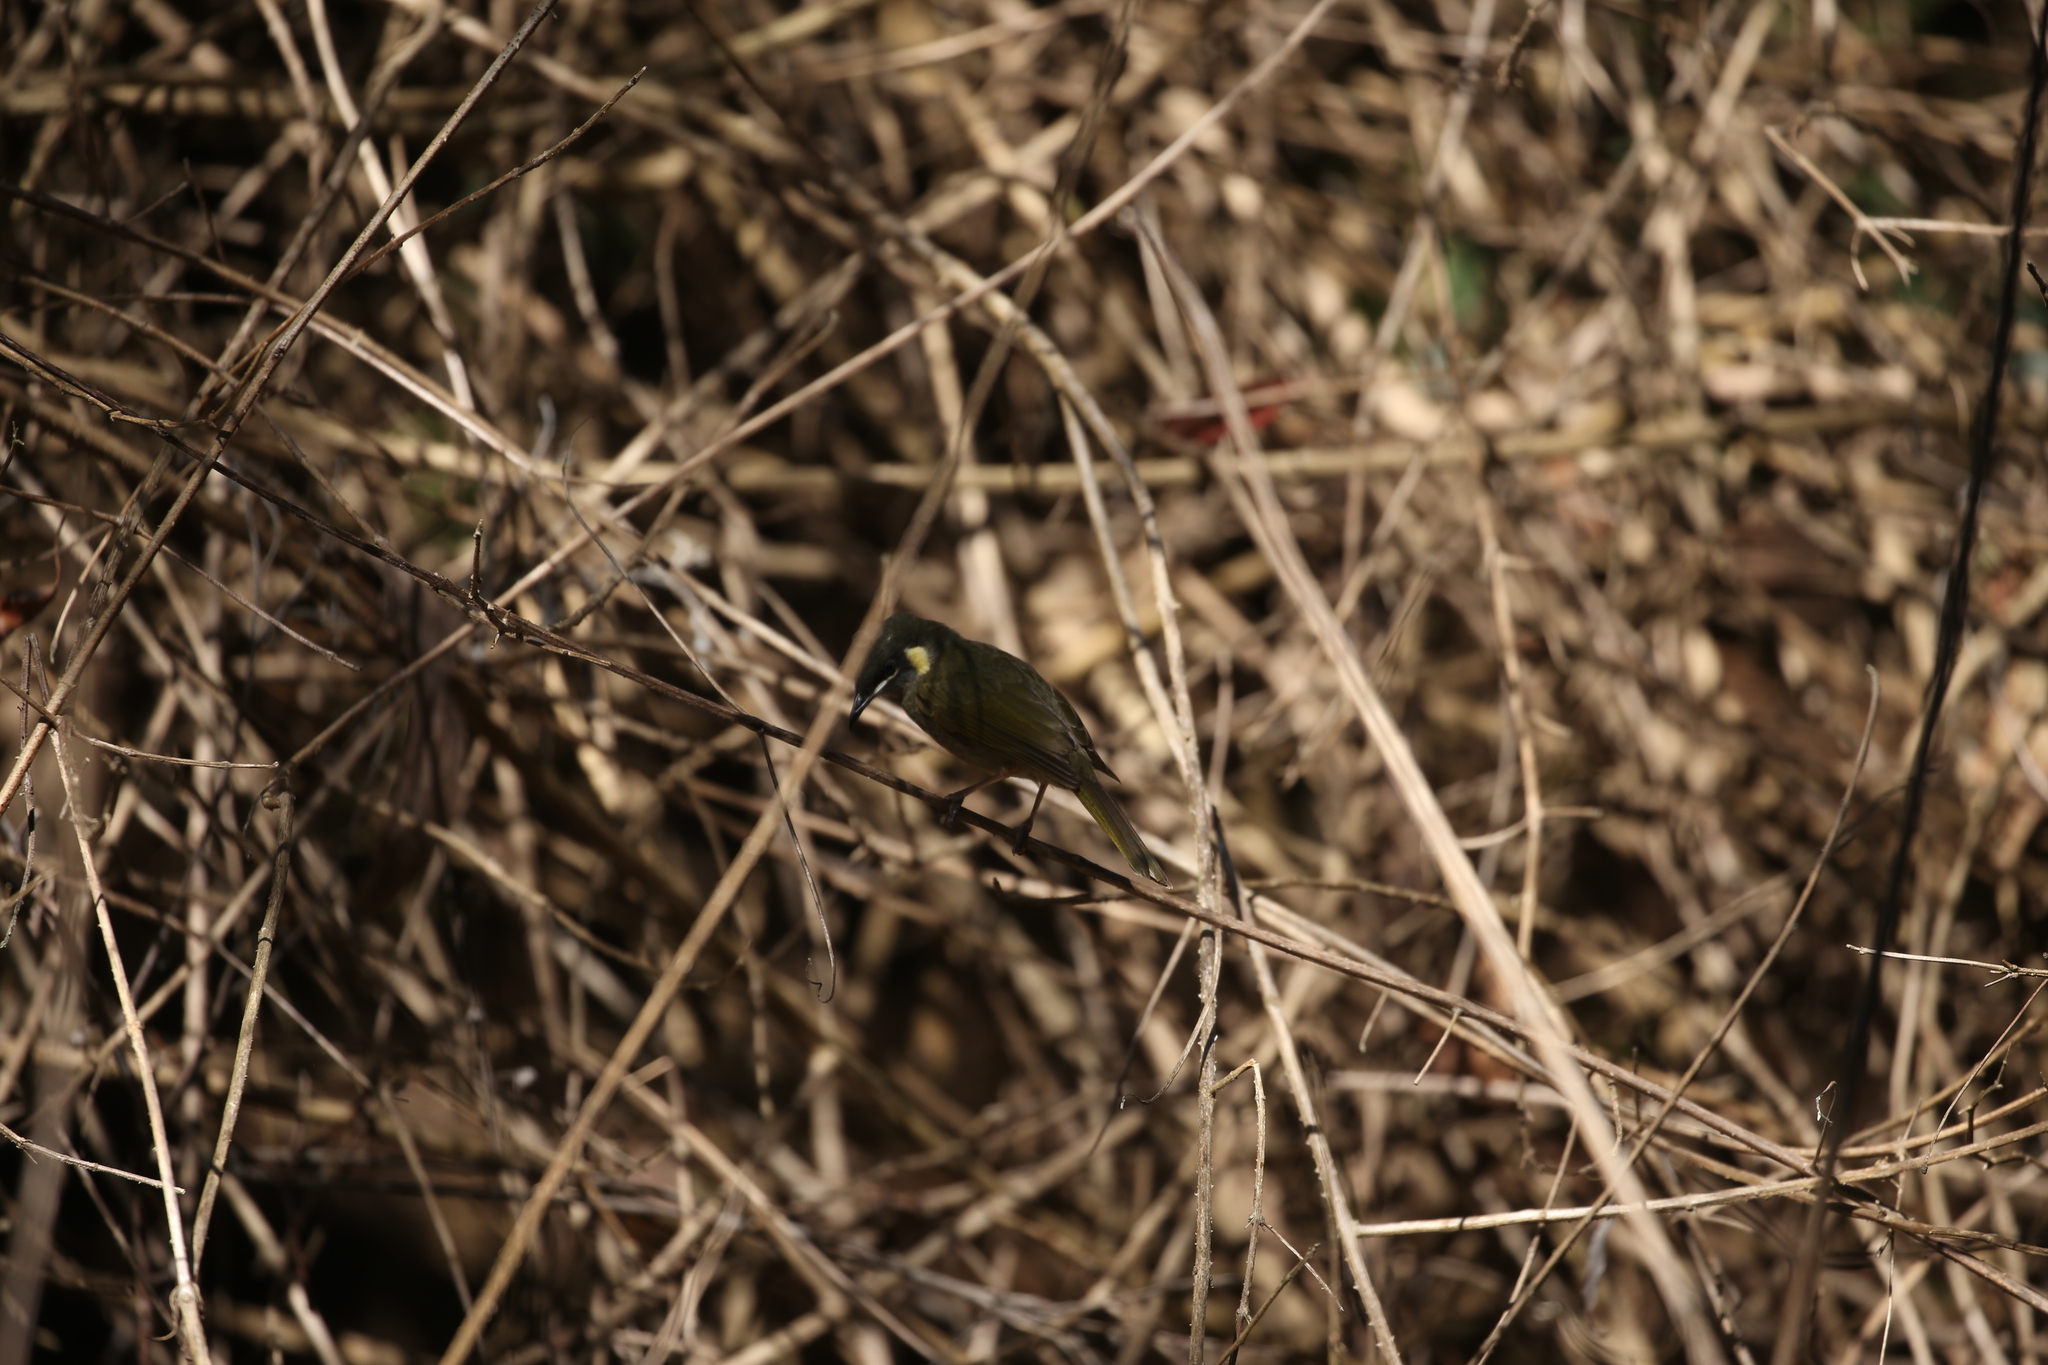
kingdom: Animalia
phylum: Chordata
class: Aves
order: Passeriformes
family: Meliphagidae
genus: Meliphaga
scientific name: Meliphaga lewinii
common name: Lewin's honeyeater
